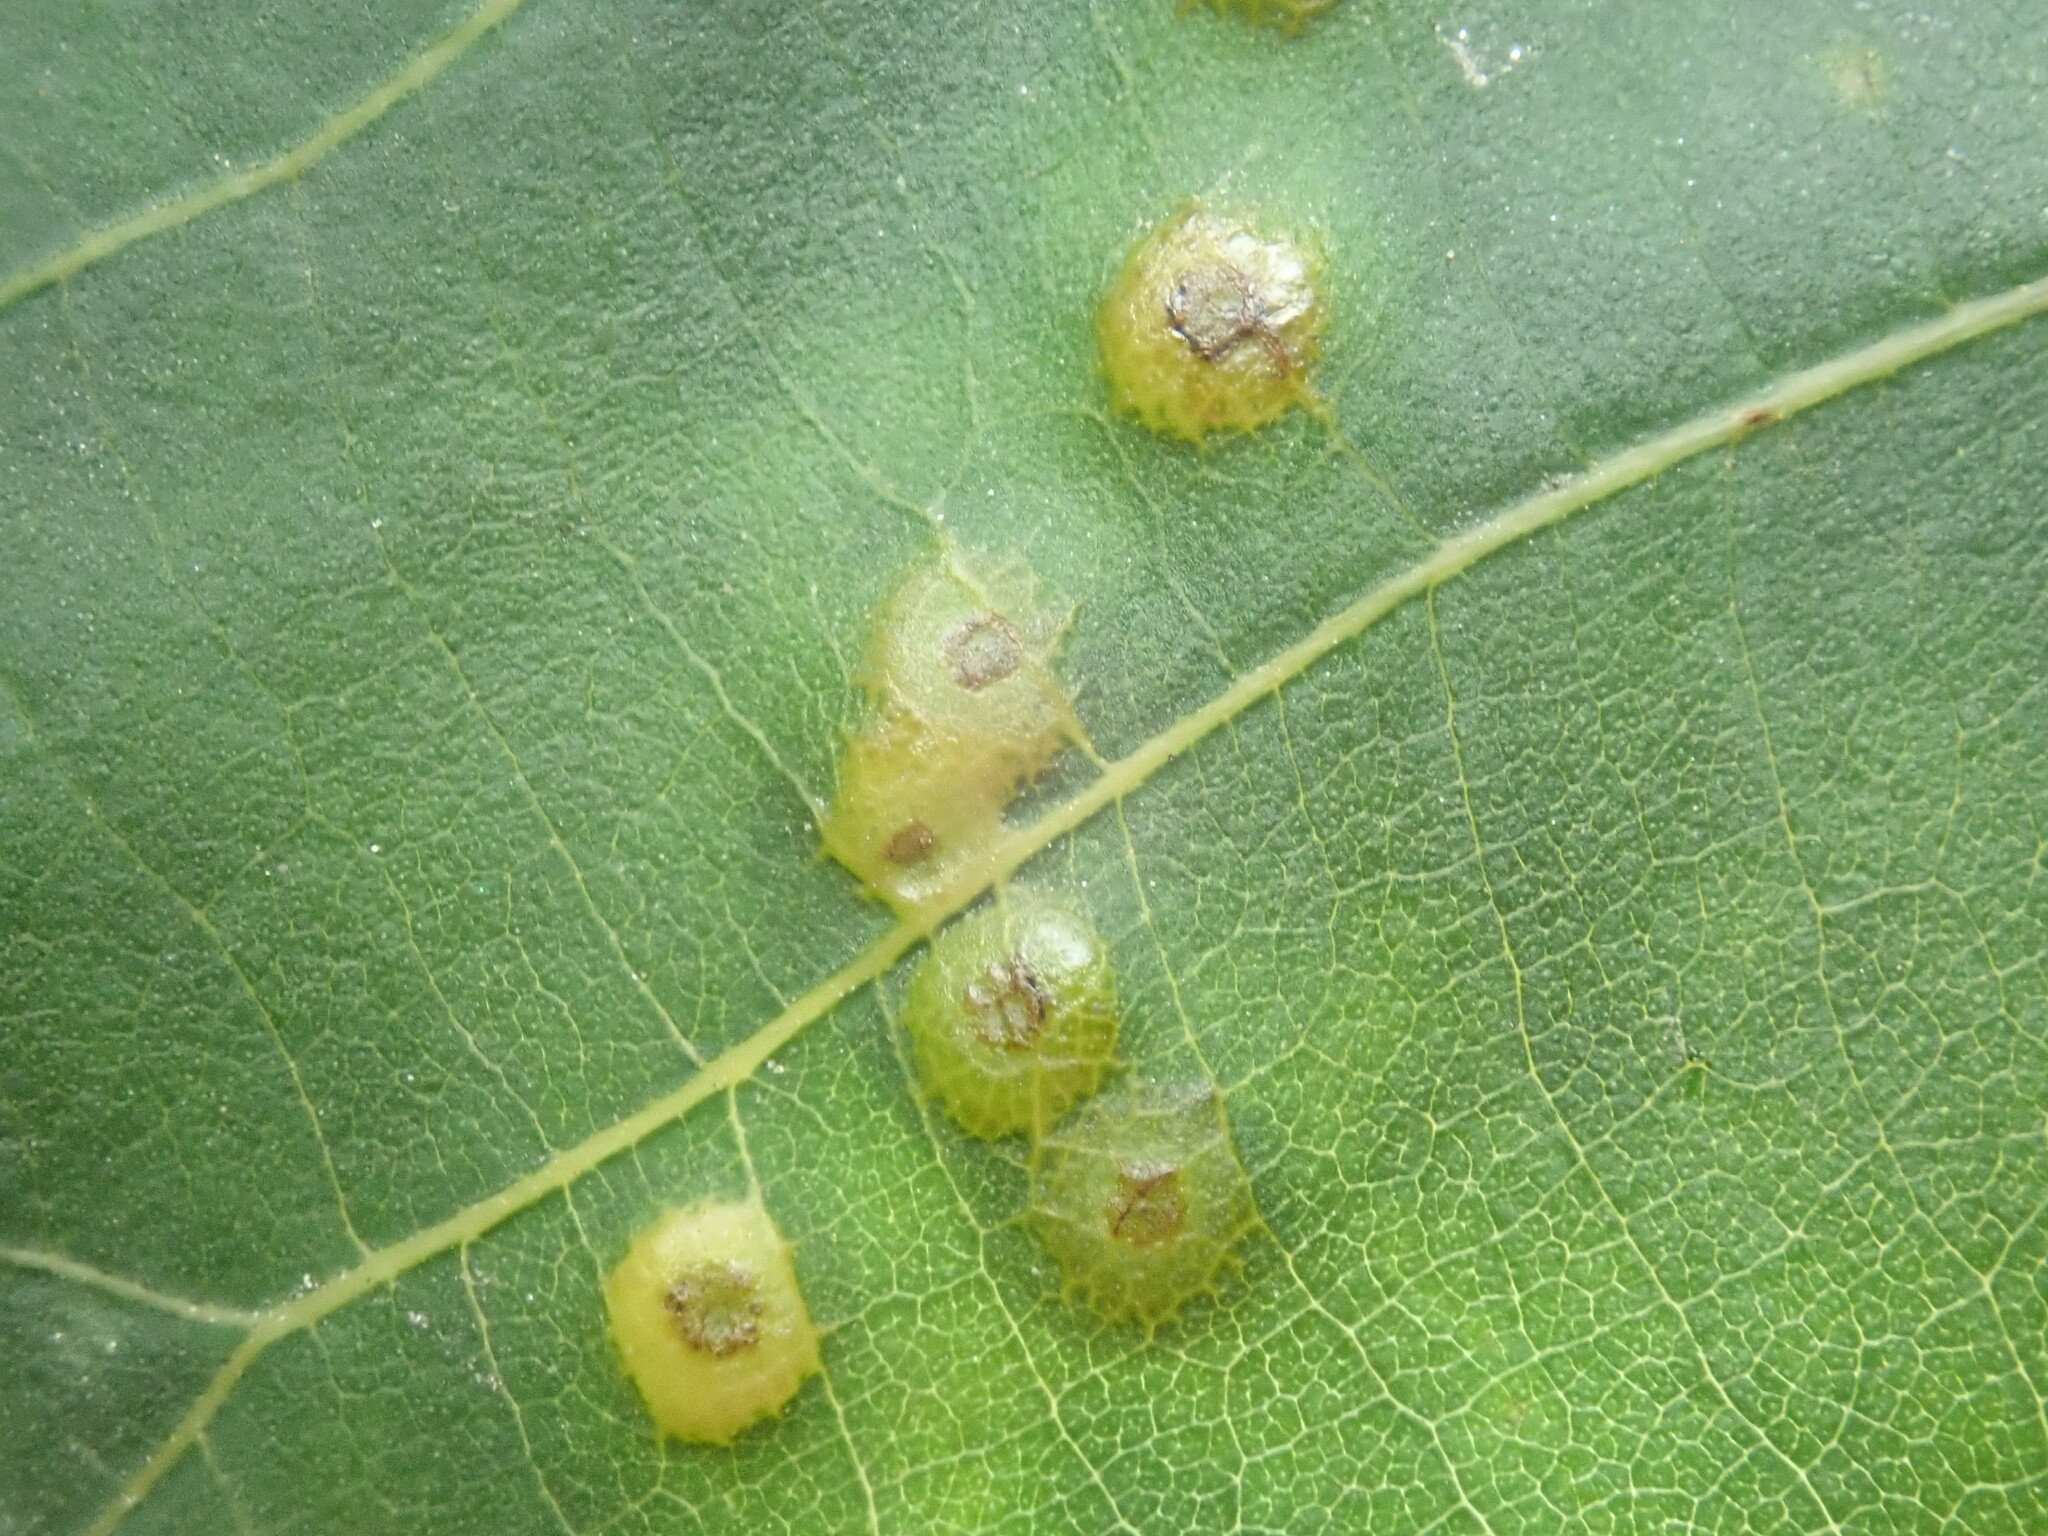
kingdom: Animalia
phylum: Arthropoda
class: Insecta
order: Diptera
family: Cecidomyiidae
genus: Caryomyia
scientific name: Caryomyia biretta
